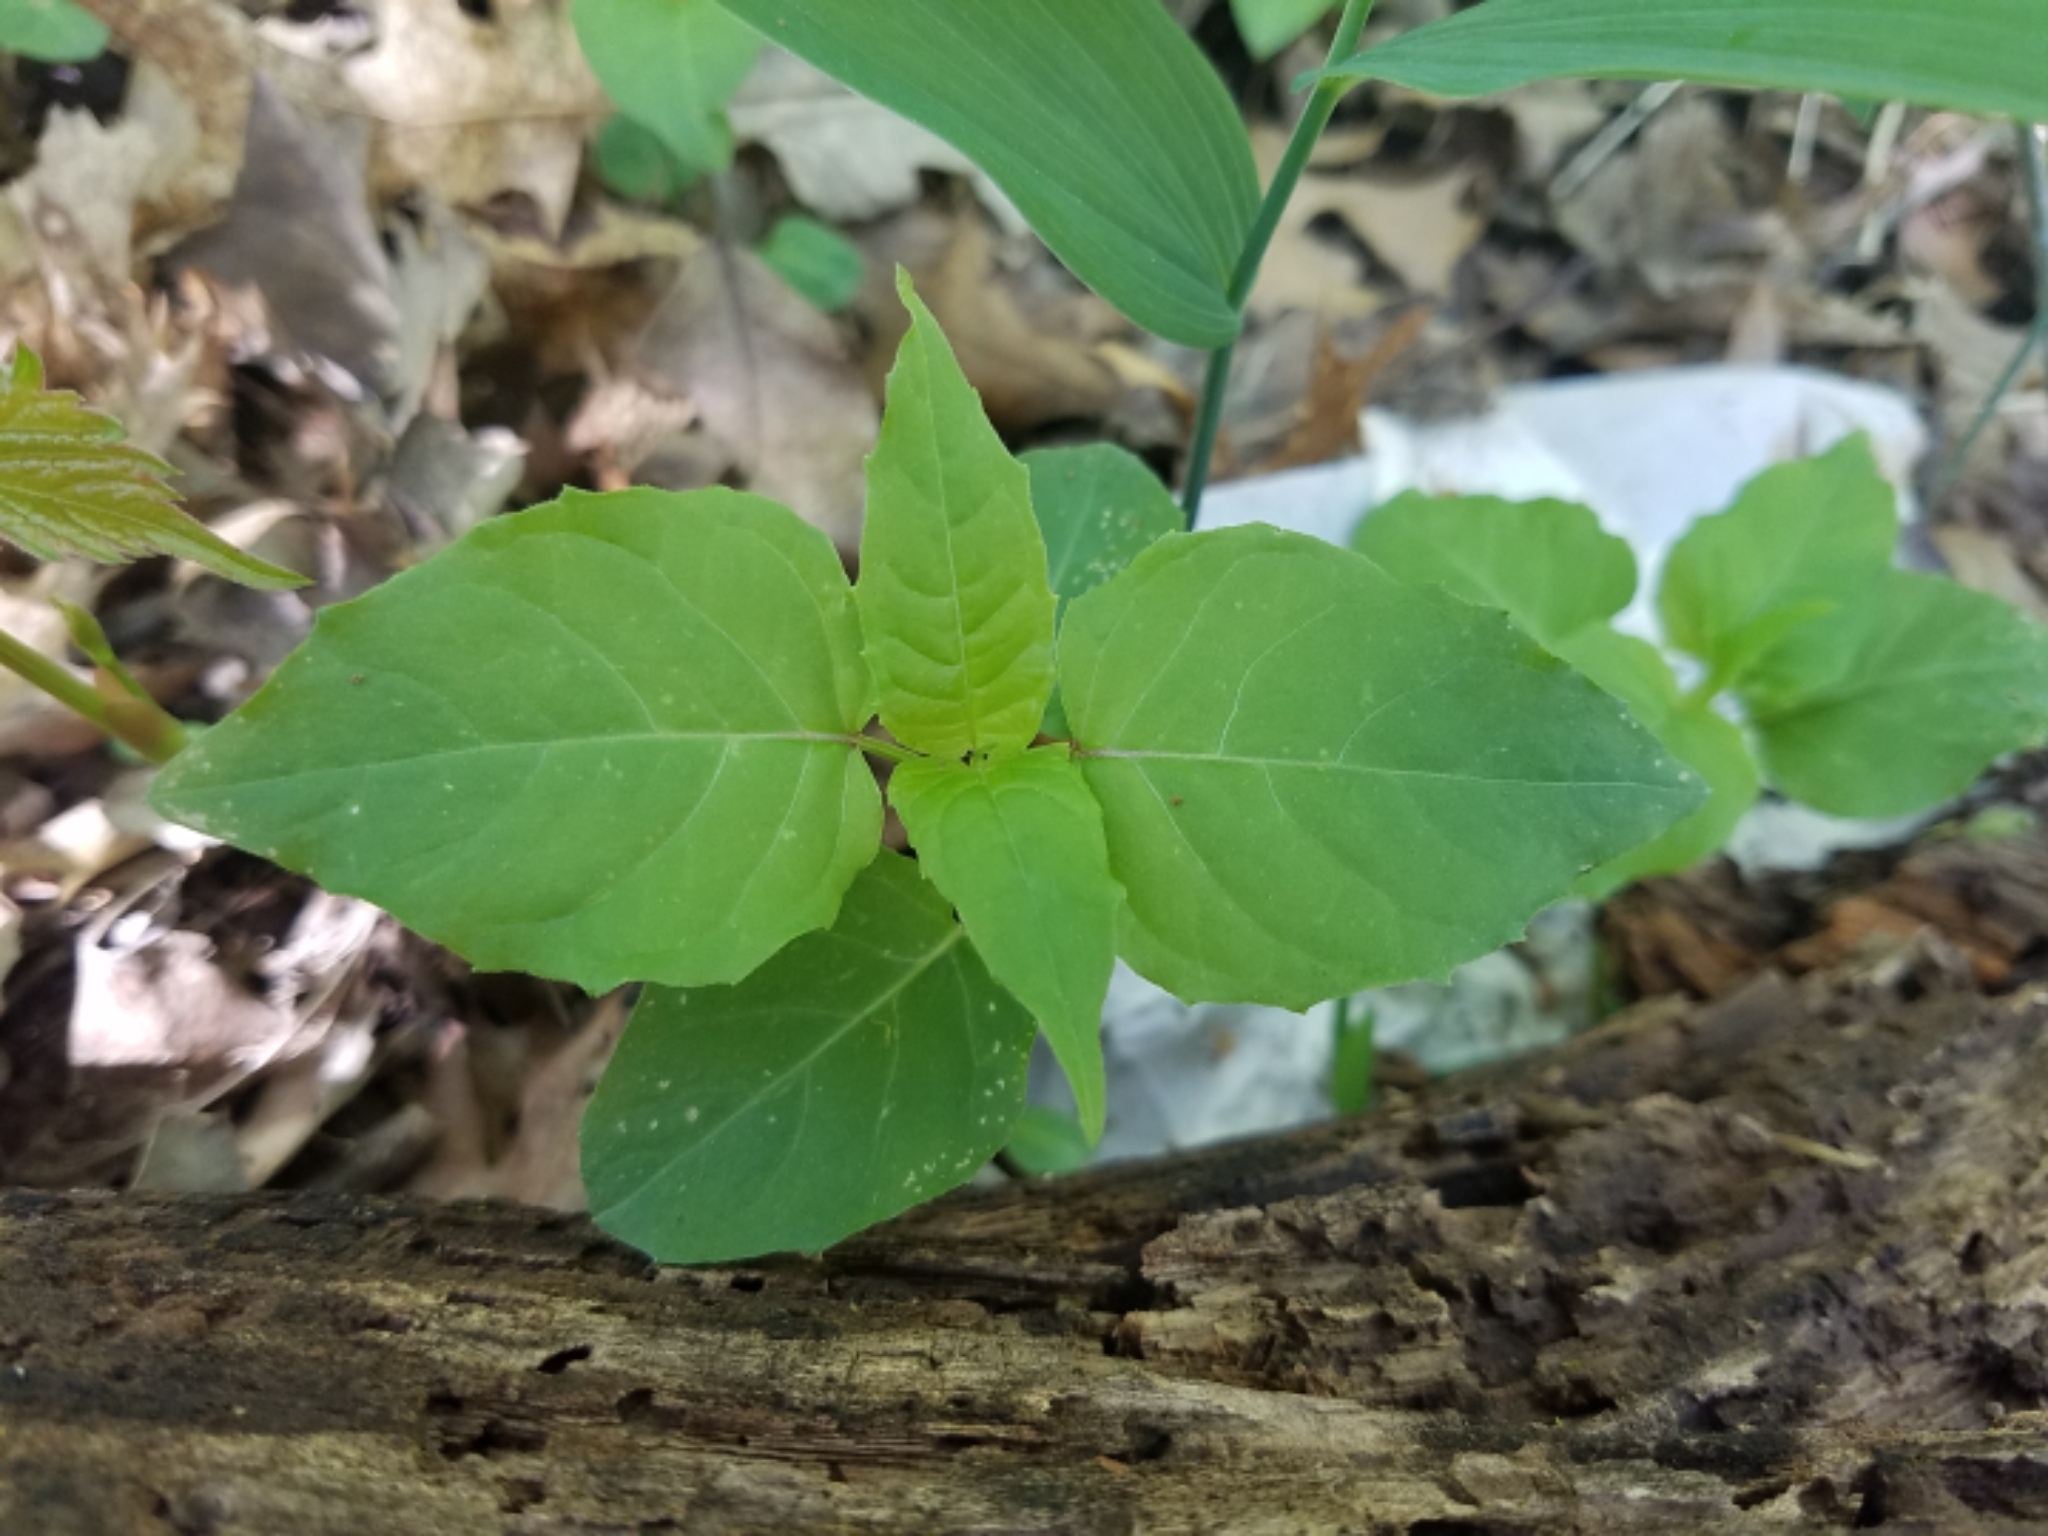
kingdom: Plantae
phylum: Tracheophyta
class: Magnoliopsida
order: Myrtales
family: Onagraceae
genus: Circaea
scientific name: Circaea canadensis
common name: Broad-leaved enchanter's nightshade
